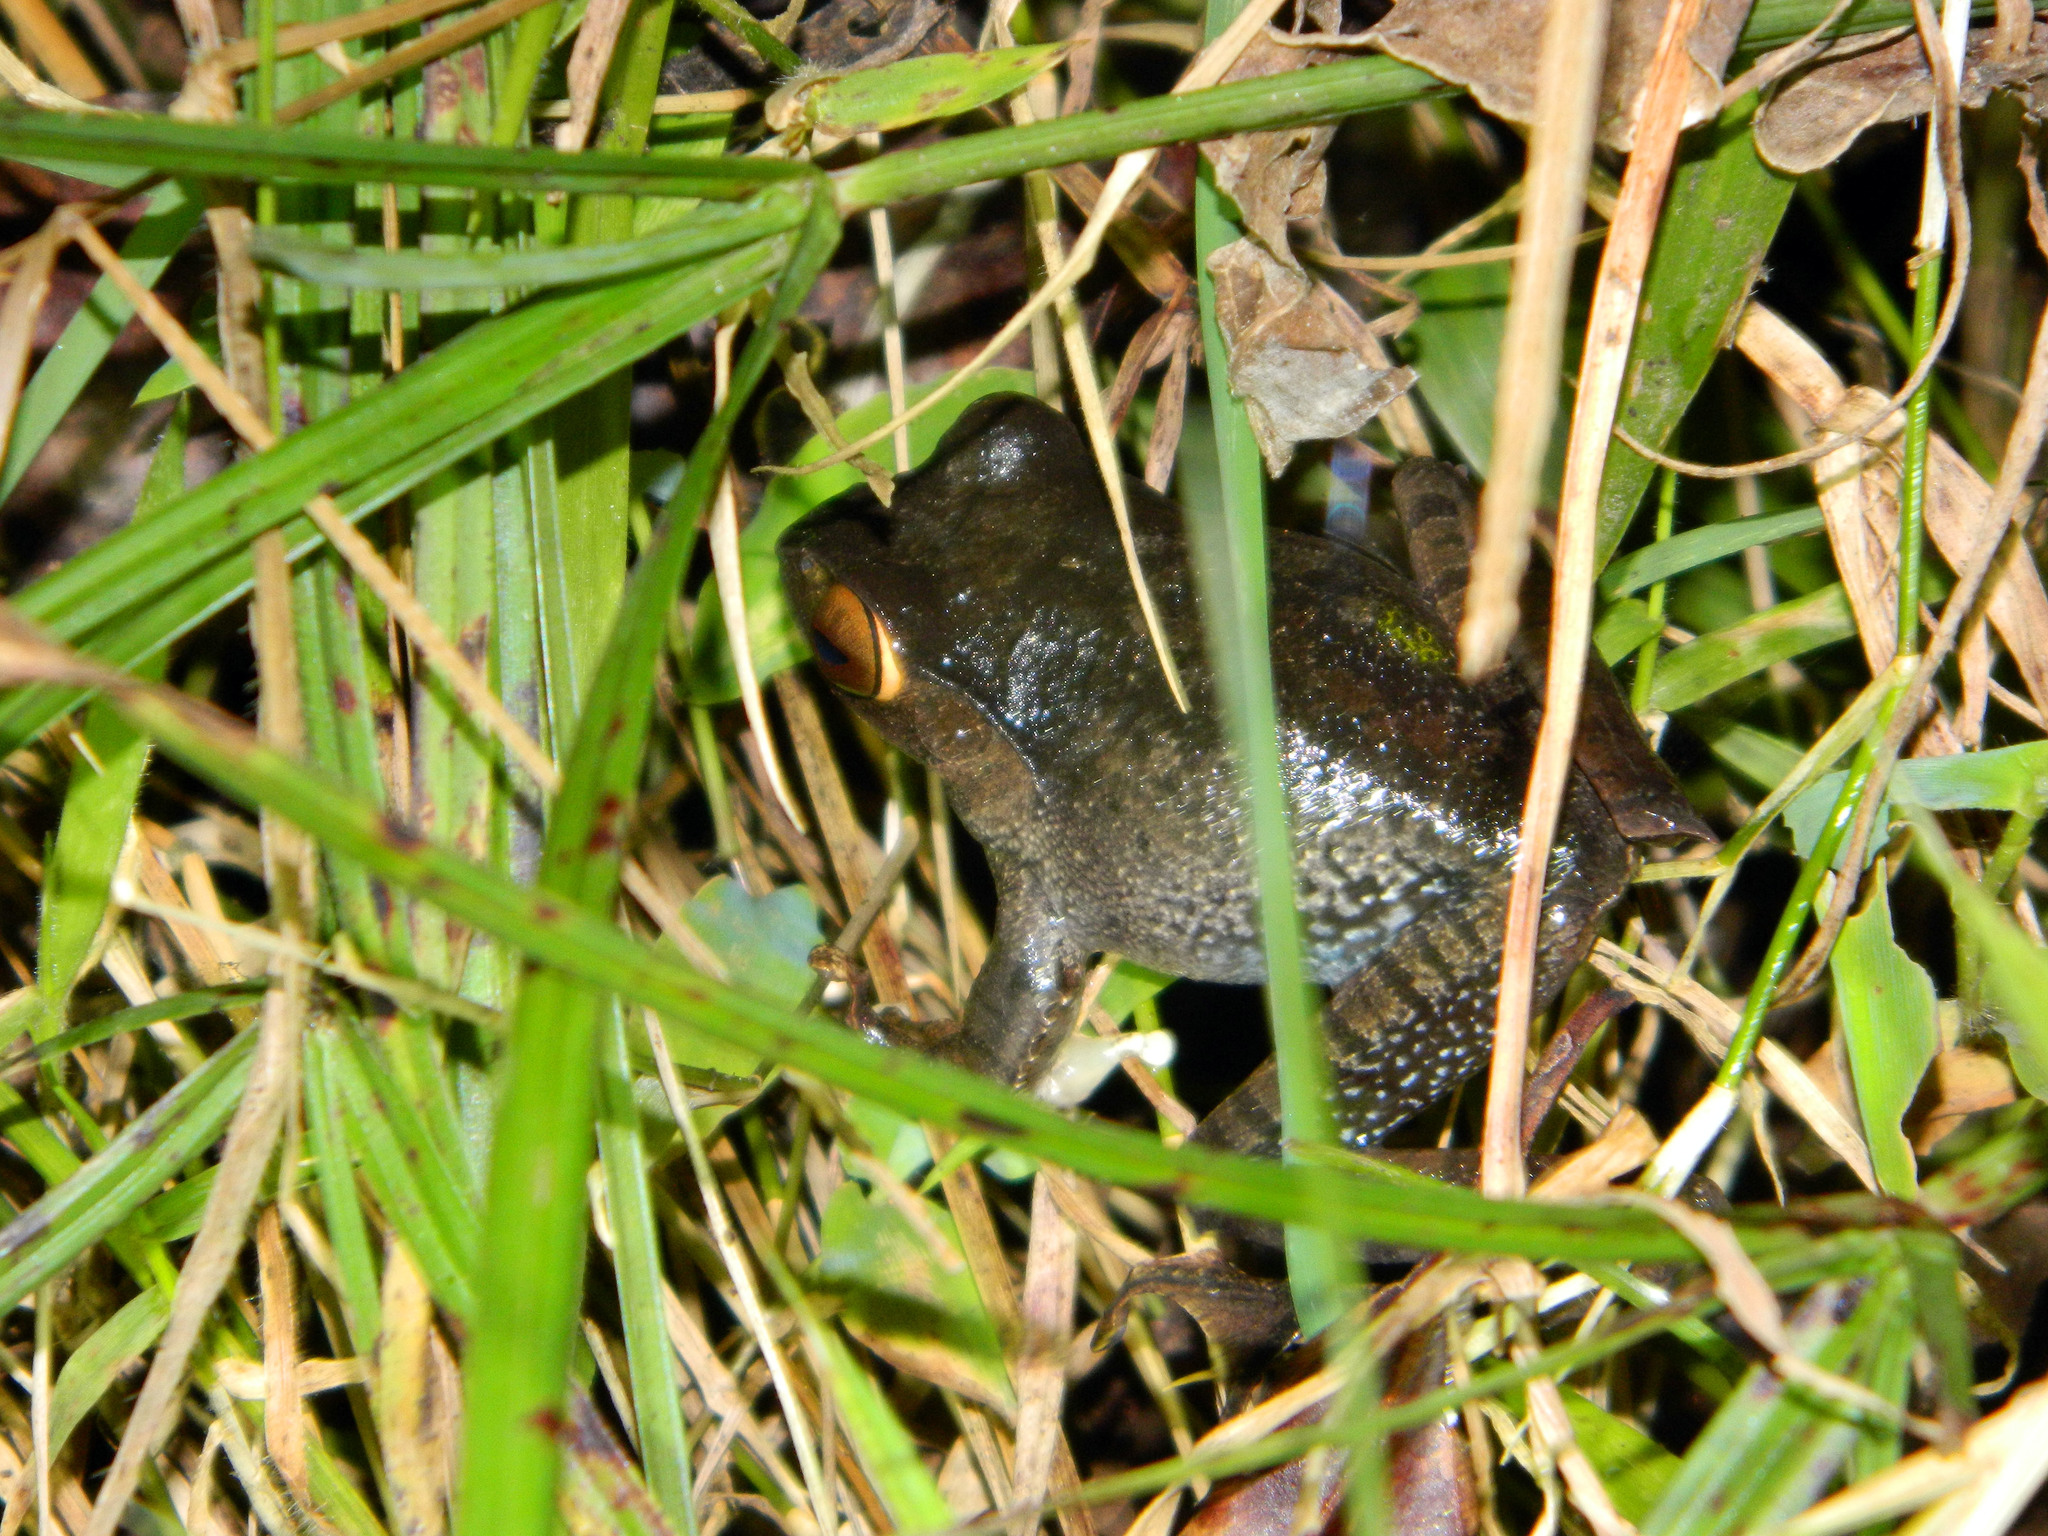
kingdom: Animalia
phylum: Chordata
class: Amphibia
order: Anura
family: Mantellidae
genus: Boophis
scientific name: Boophis madagascariensis
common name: Madagascar bright-eyed frog
